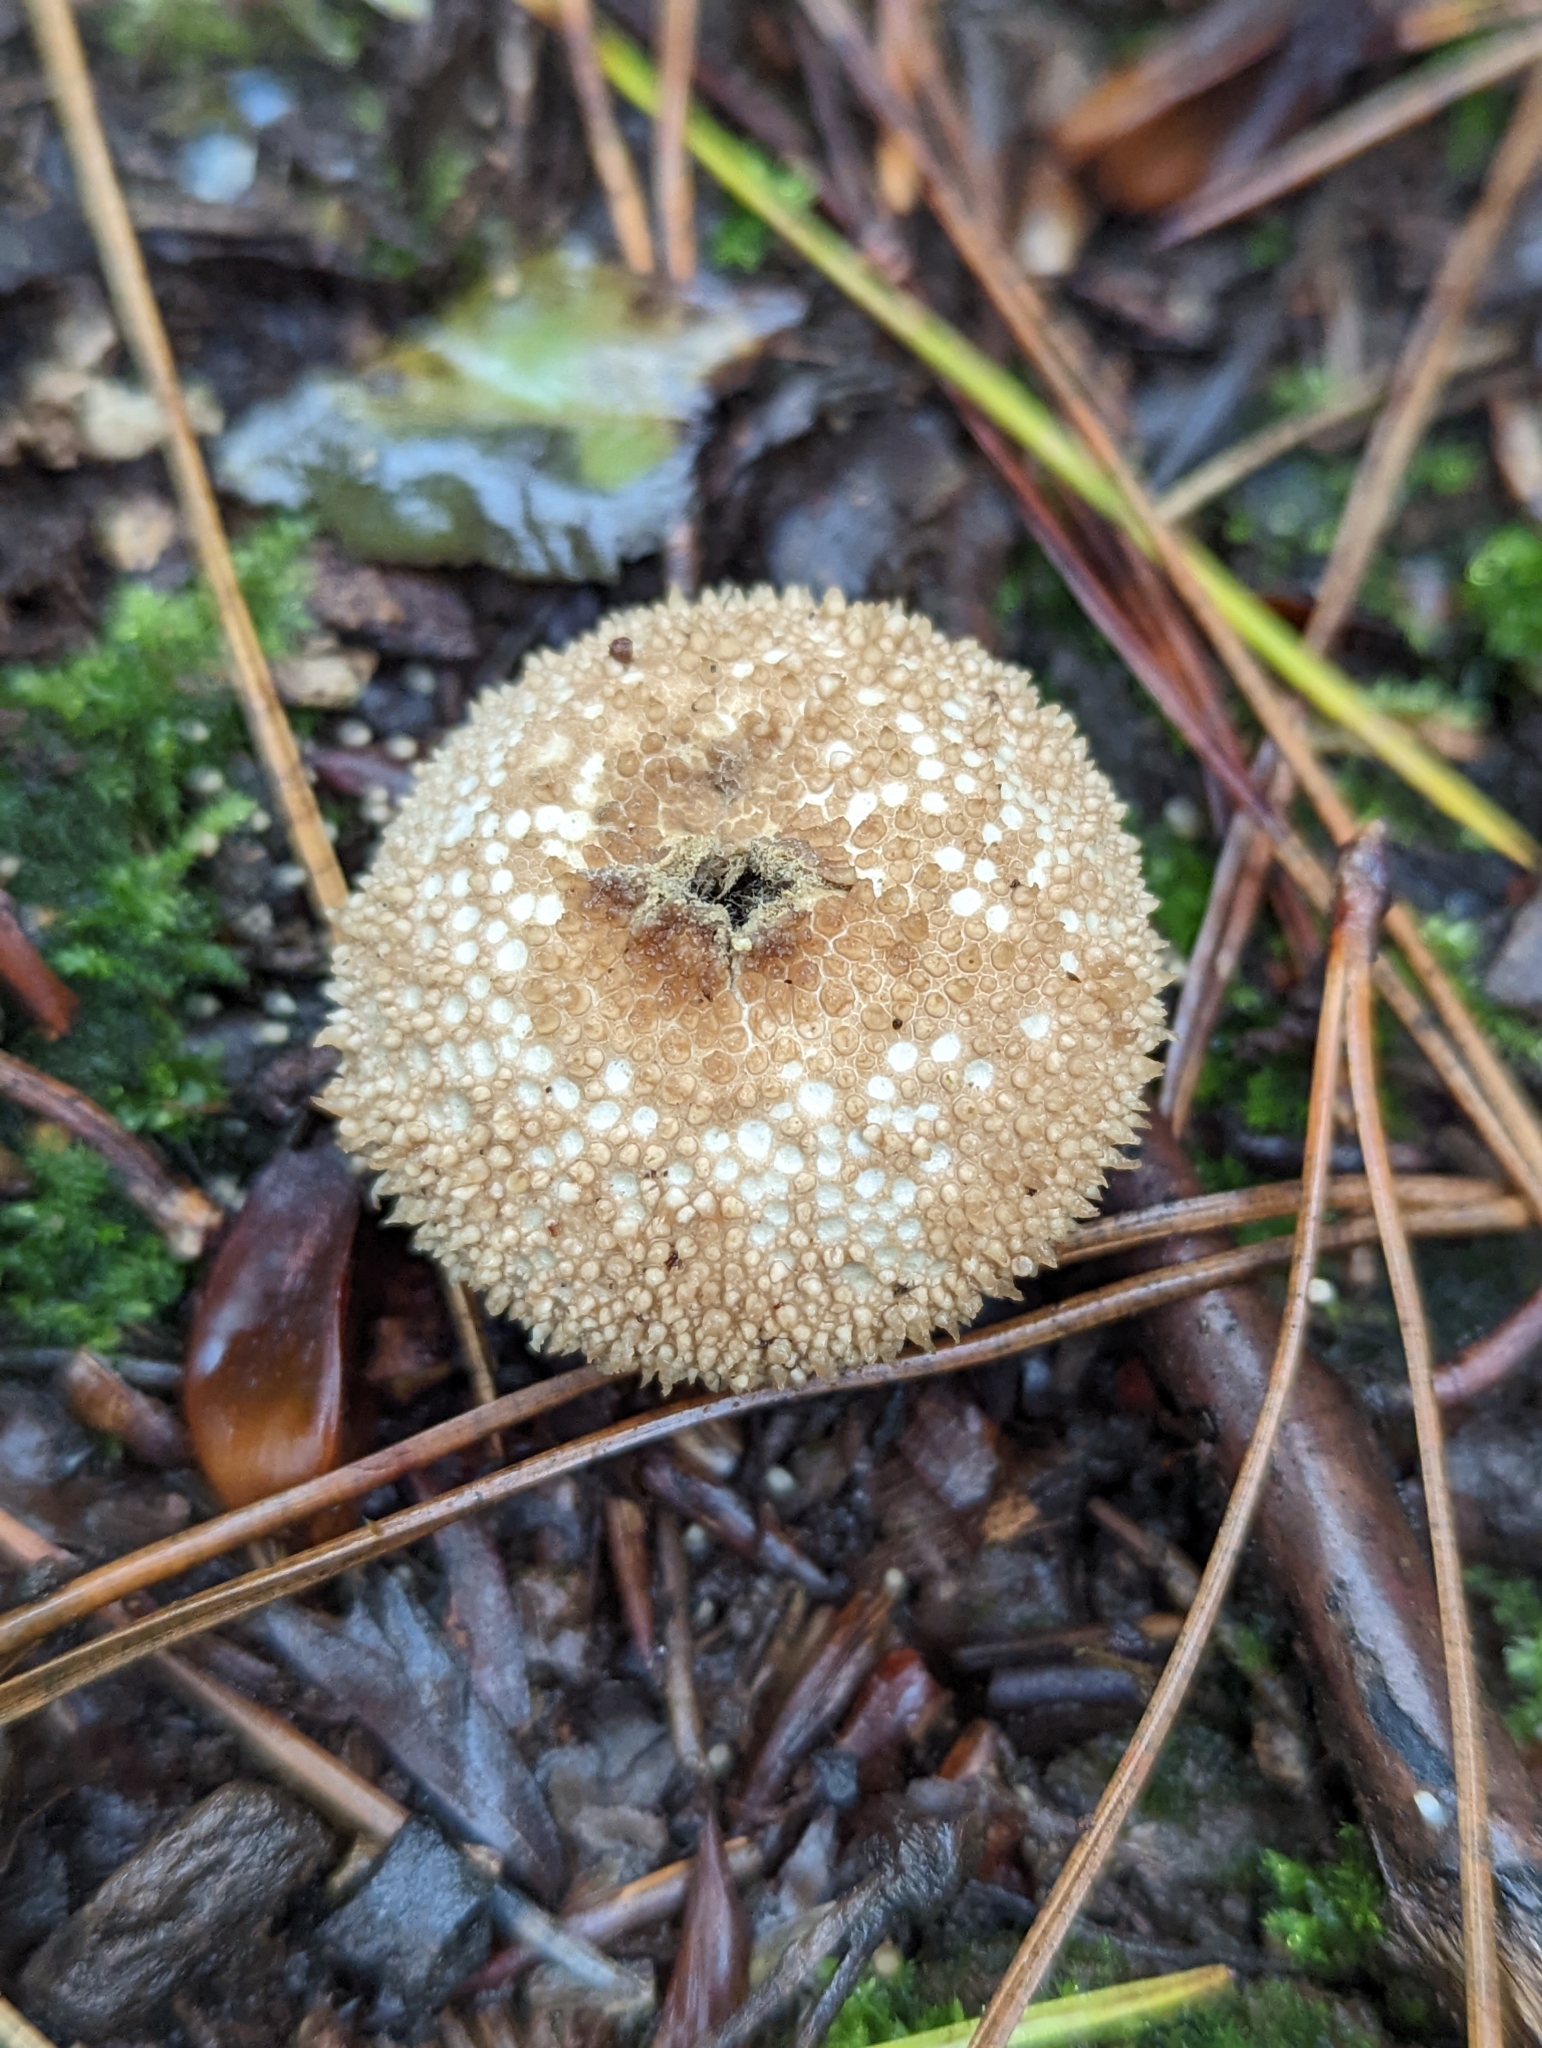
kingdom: Fungi
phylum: Basidiomycota
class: Agaricomycetes
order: Agaricales
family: Lycoperdaceae
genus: Lycoperdon
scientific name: Lycoperdon perlatum
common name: Common puffball
